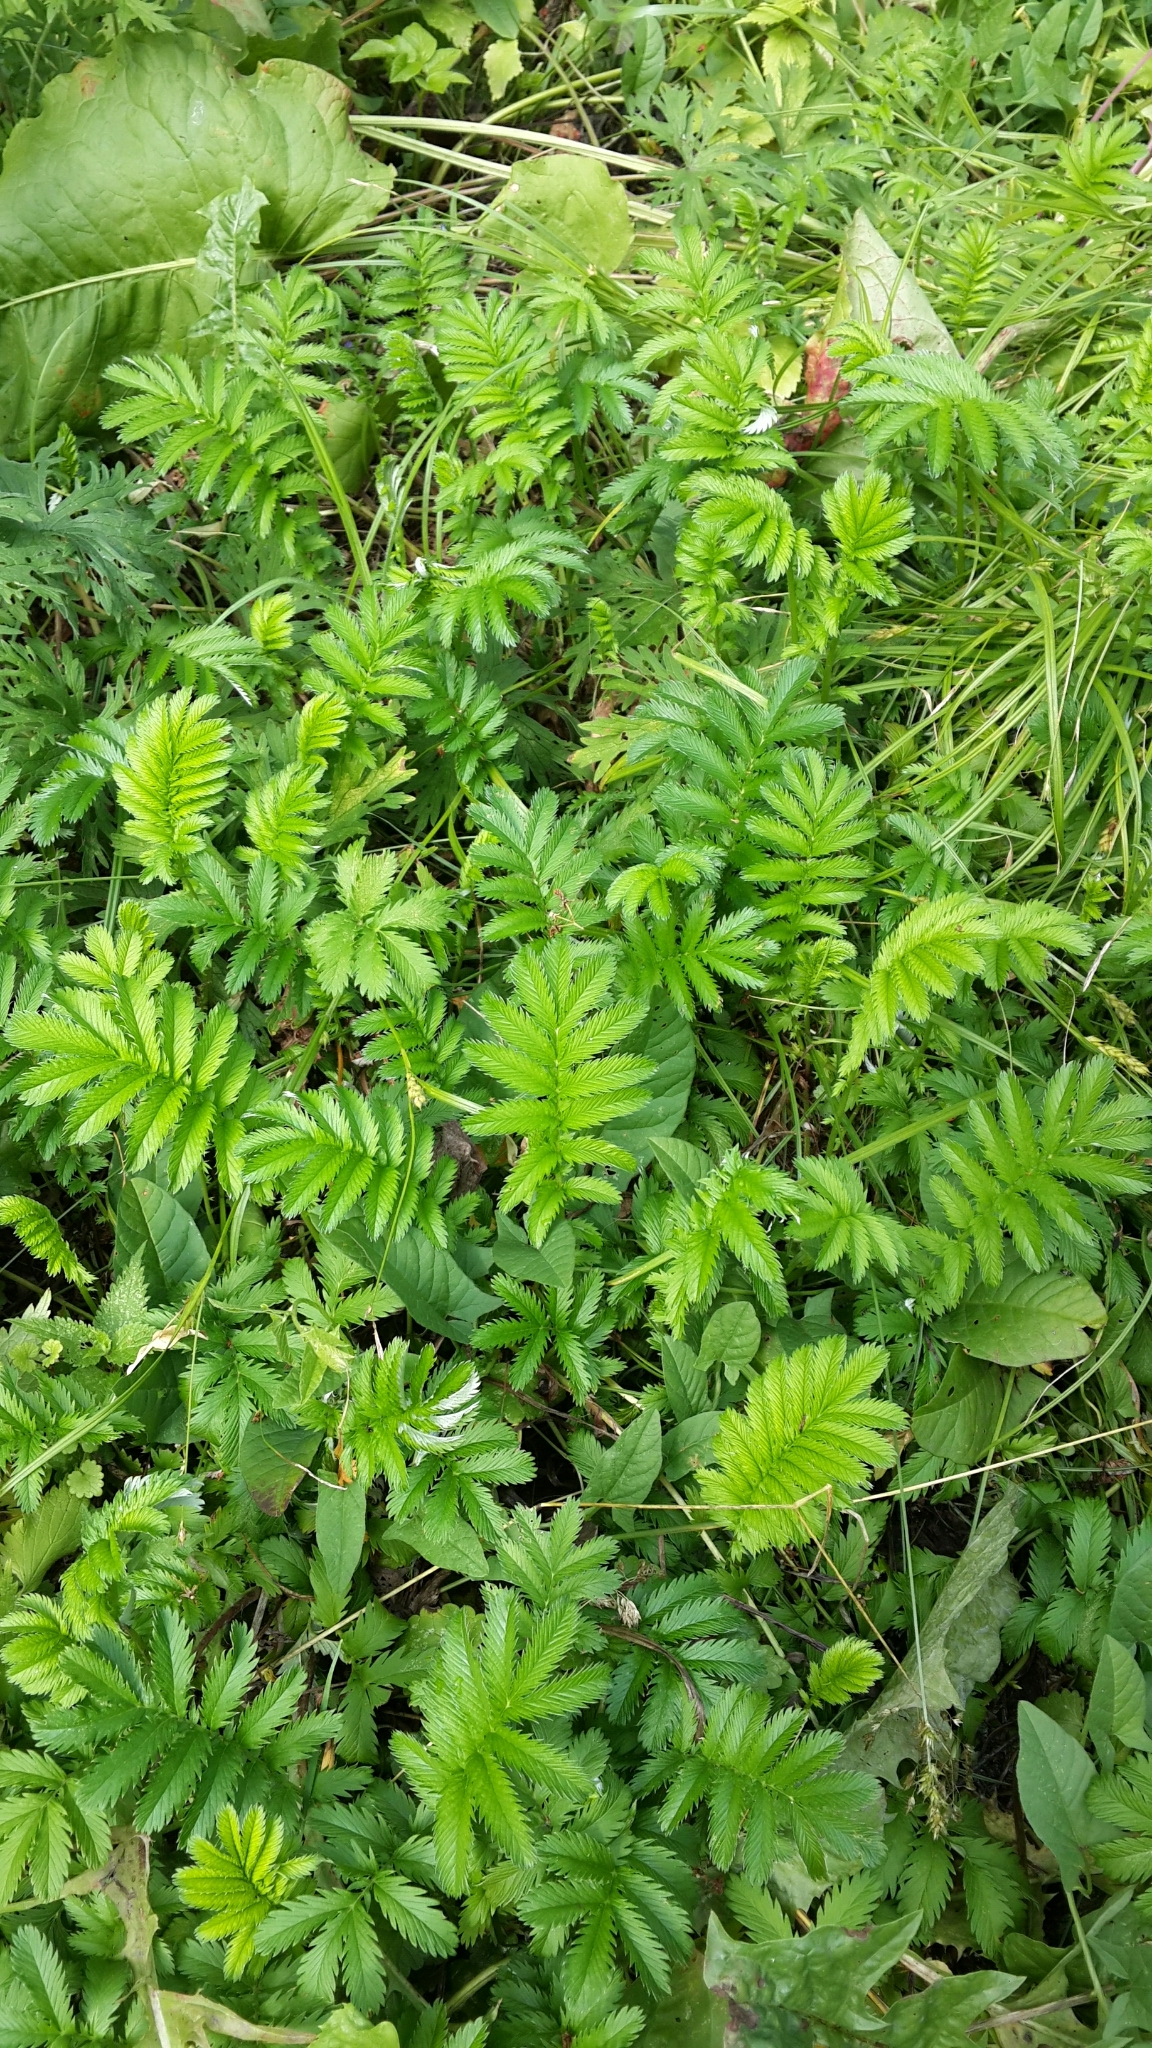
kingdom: Plantae
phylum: Tracheophyta
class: Magnoliopsida
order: Rosales
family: Rosaceae
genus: Argentina
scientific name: Argentina anserina
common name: Common silverweed
